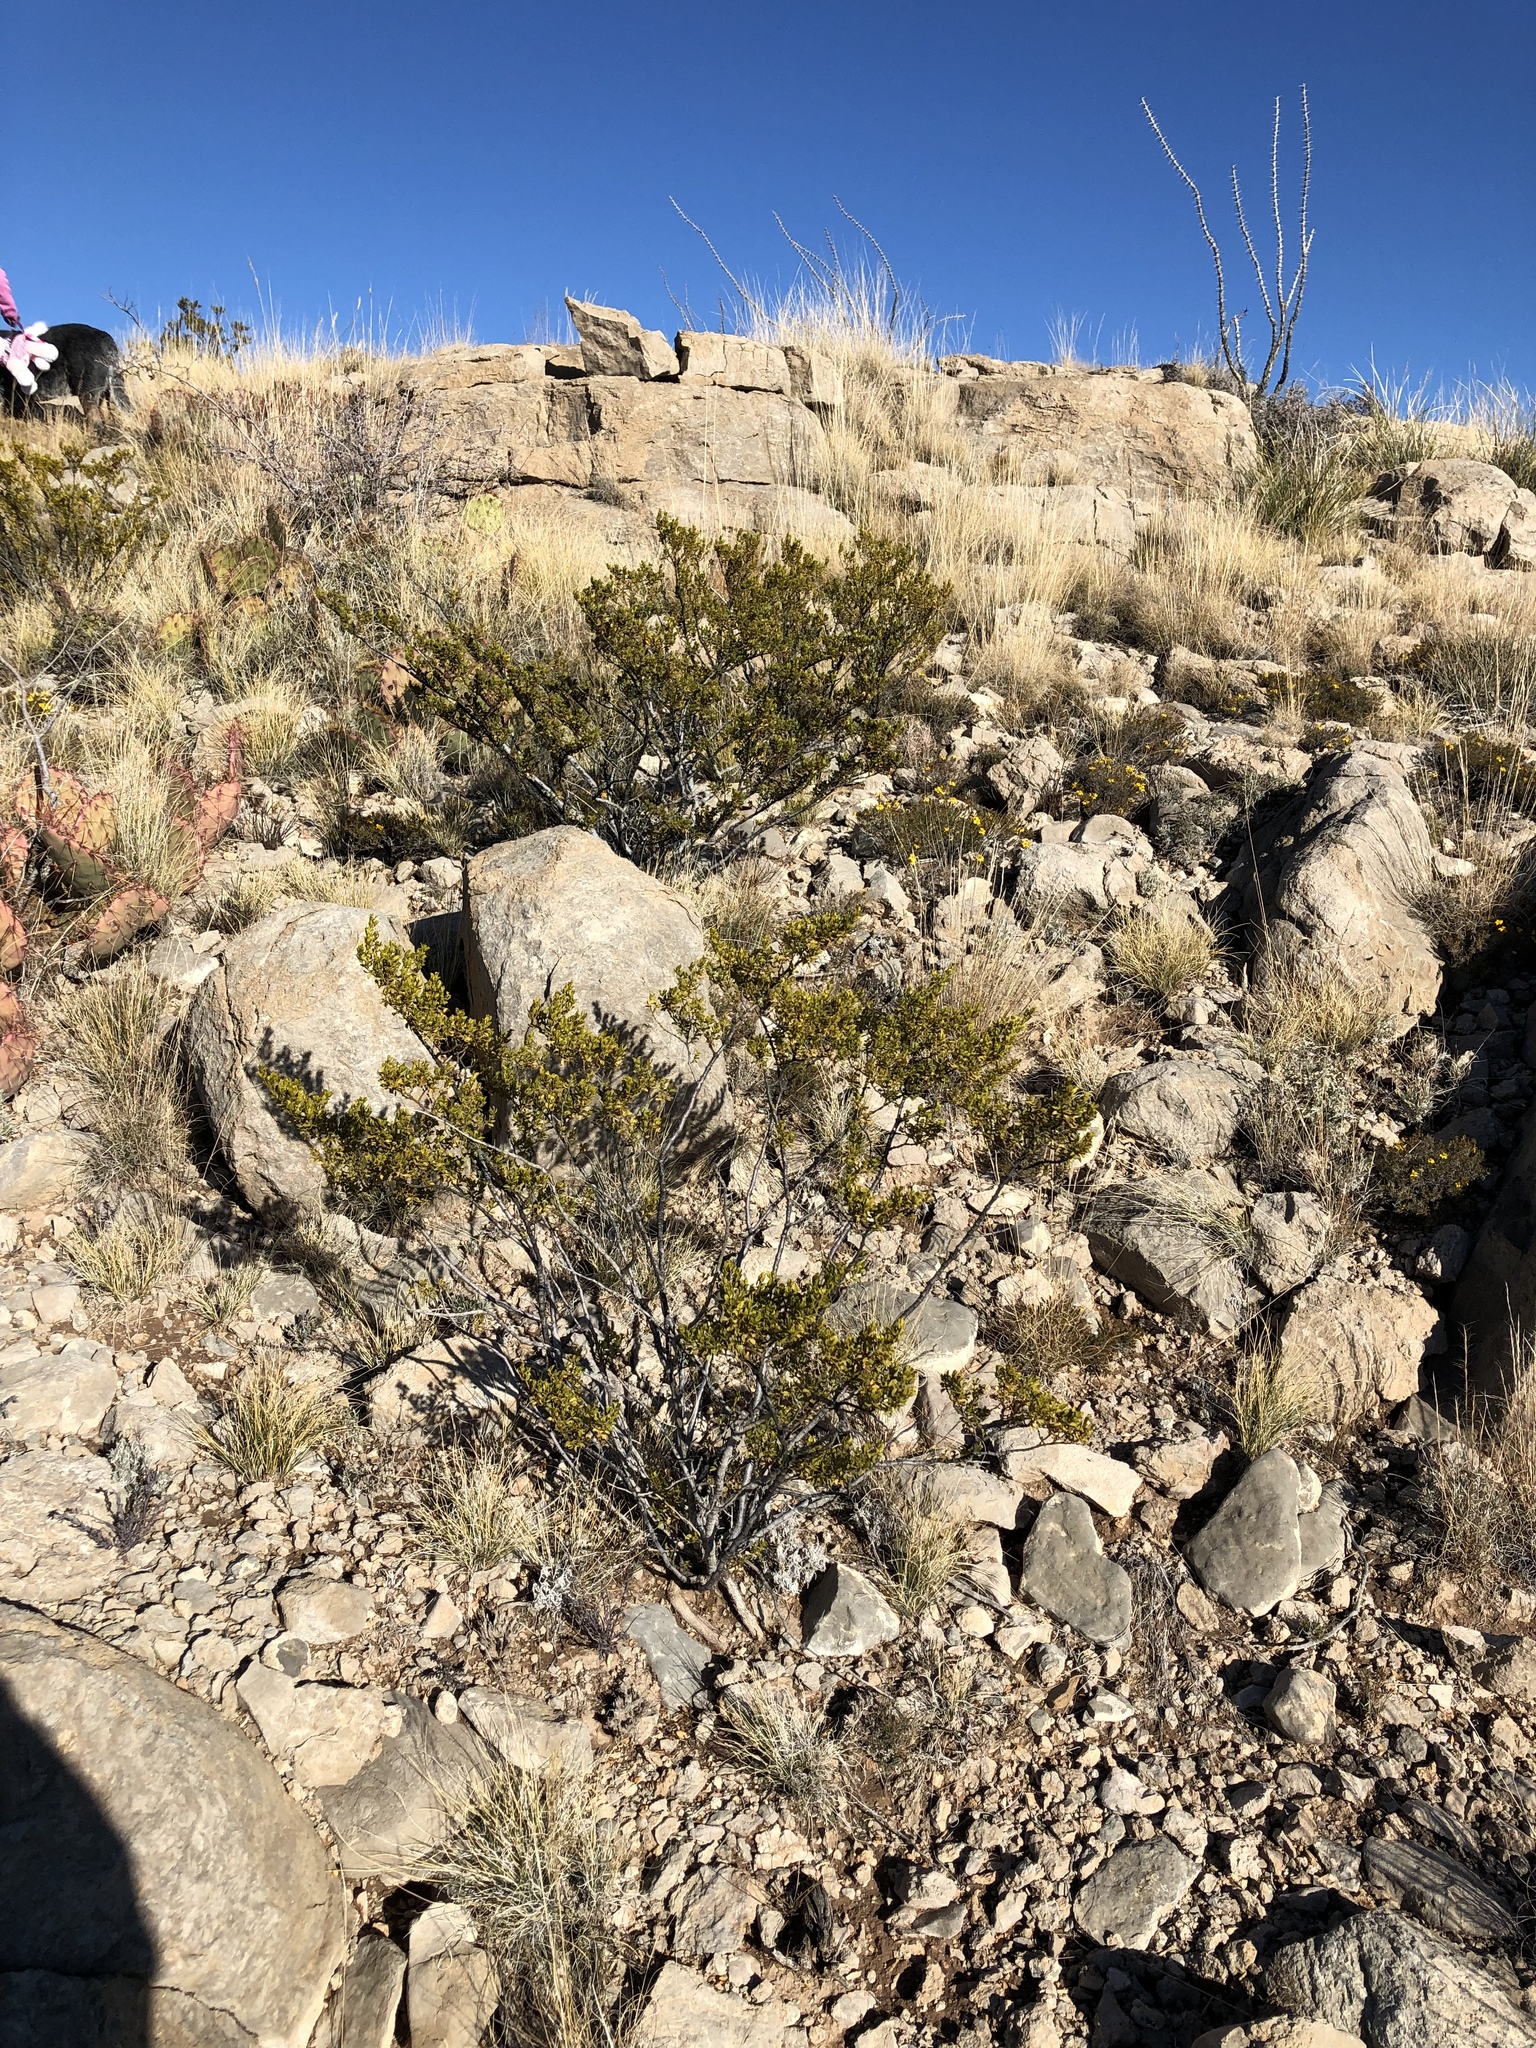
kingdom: Plantae
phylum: Tracheophyta
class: Magnoliopsida
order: Zygophyllales
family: Zygophyllaceae
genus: Larrea
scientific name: Larrea tridentata
